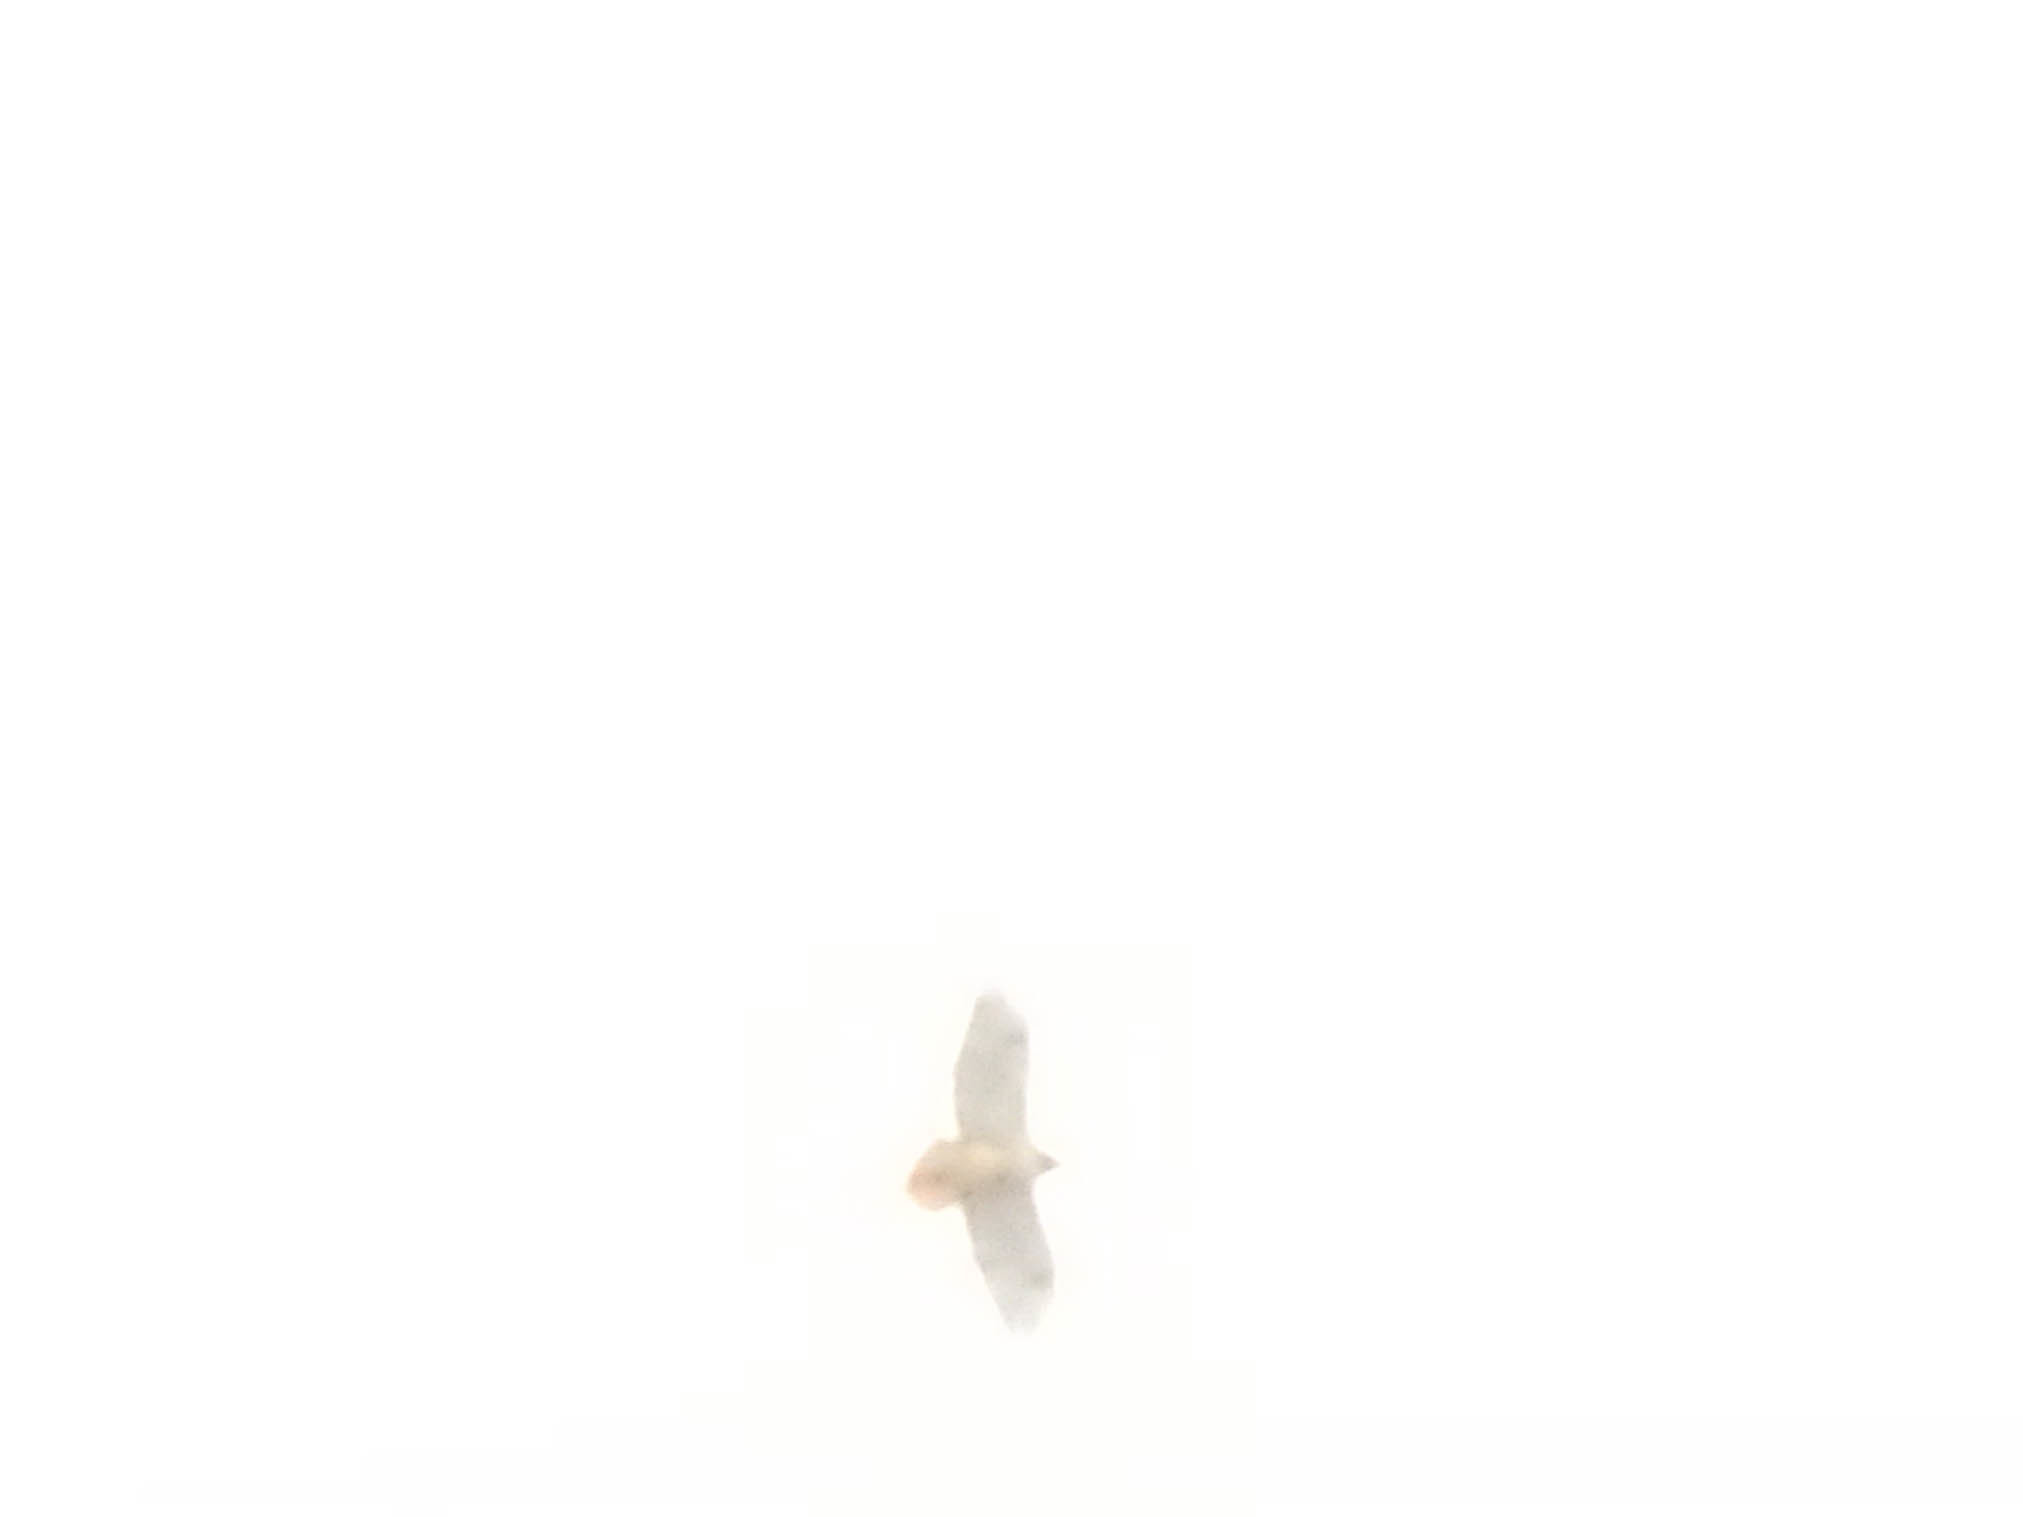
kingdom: Animalia
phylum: Chordata
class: Aves
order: Accipitriformes
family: Accipitridae
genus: Buteo
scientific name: Buteo jamaicensis
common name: Red-tailed hawk
